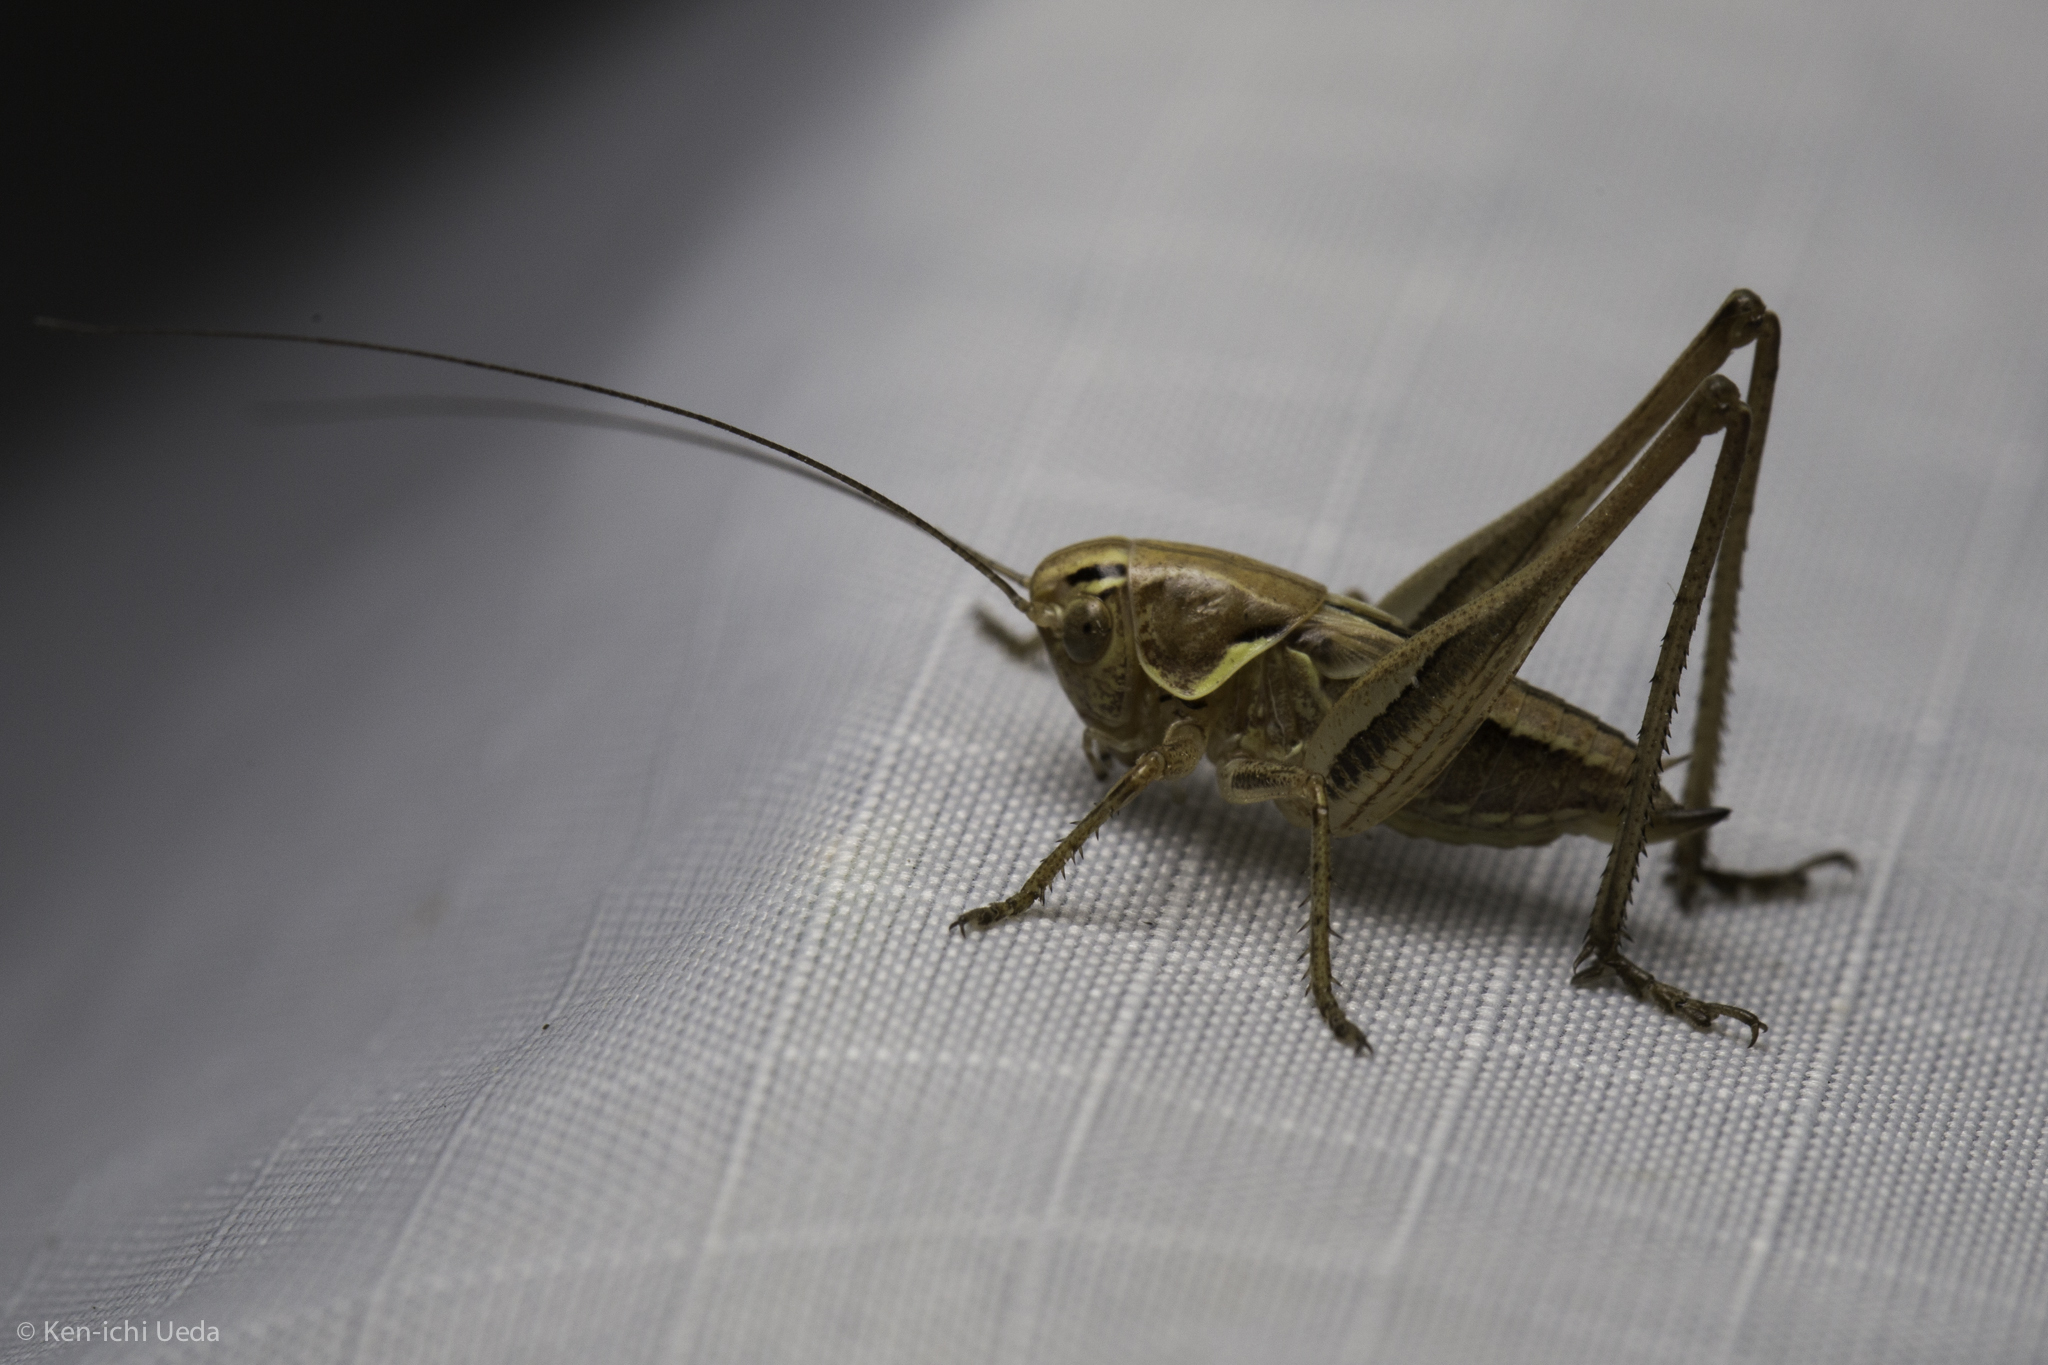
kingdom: Animalia
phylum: Arthropoda
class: Insecta
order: Orthoptera
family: Tettigoniidae
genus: Tessellana
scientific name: Tessellana tessellata
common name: Grasshopper
